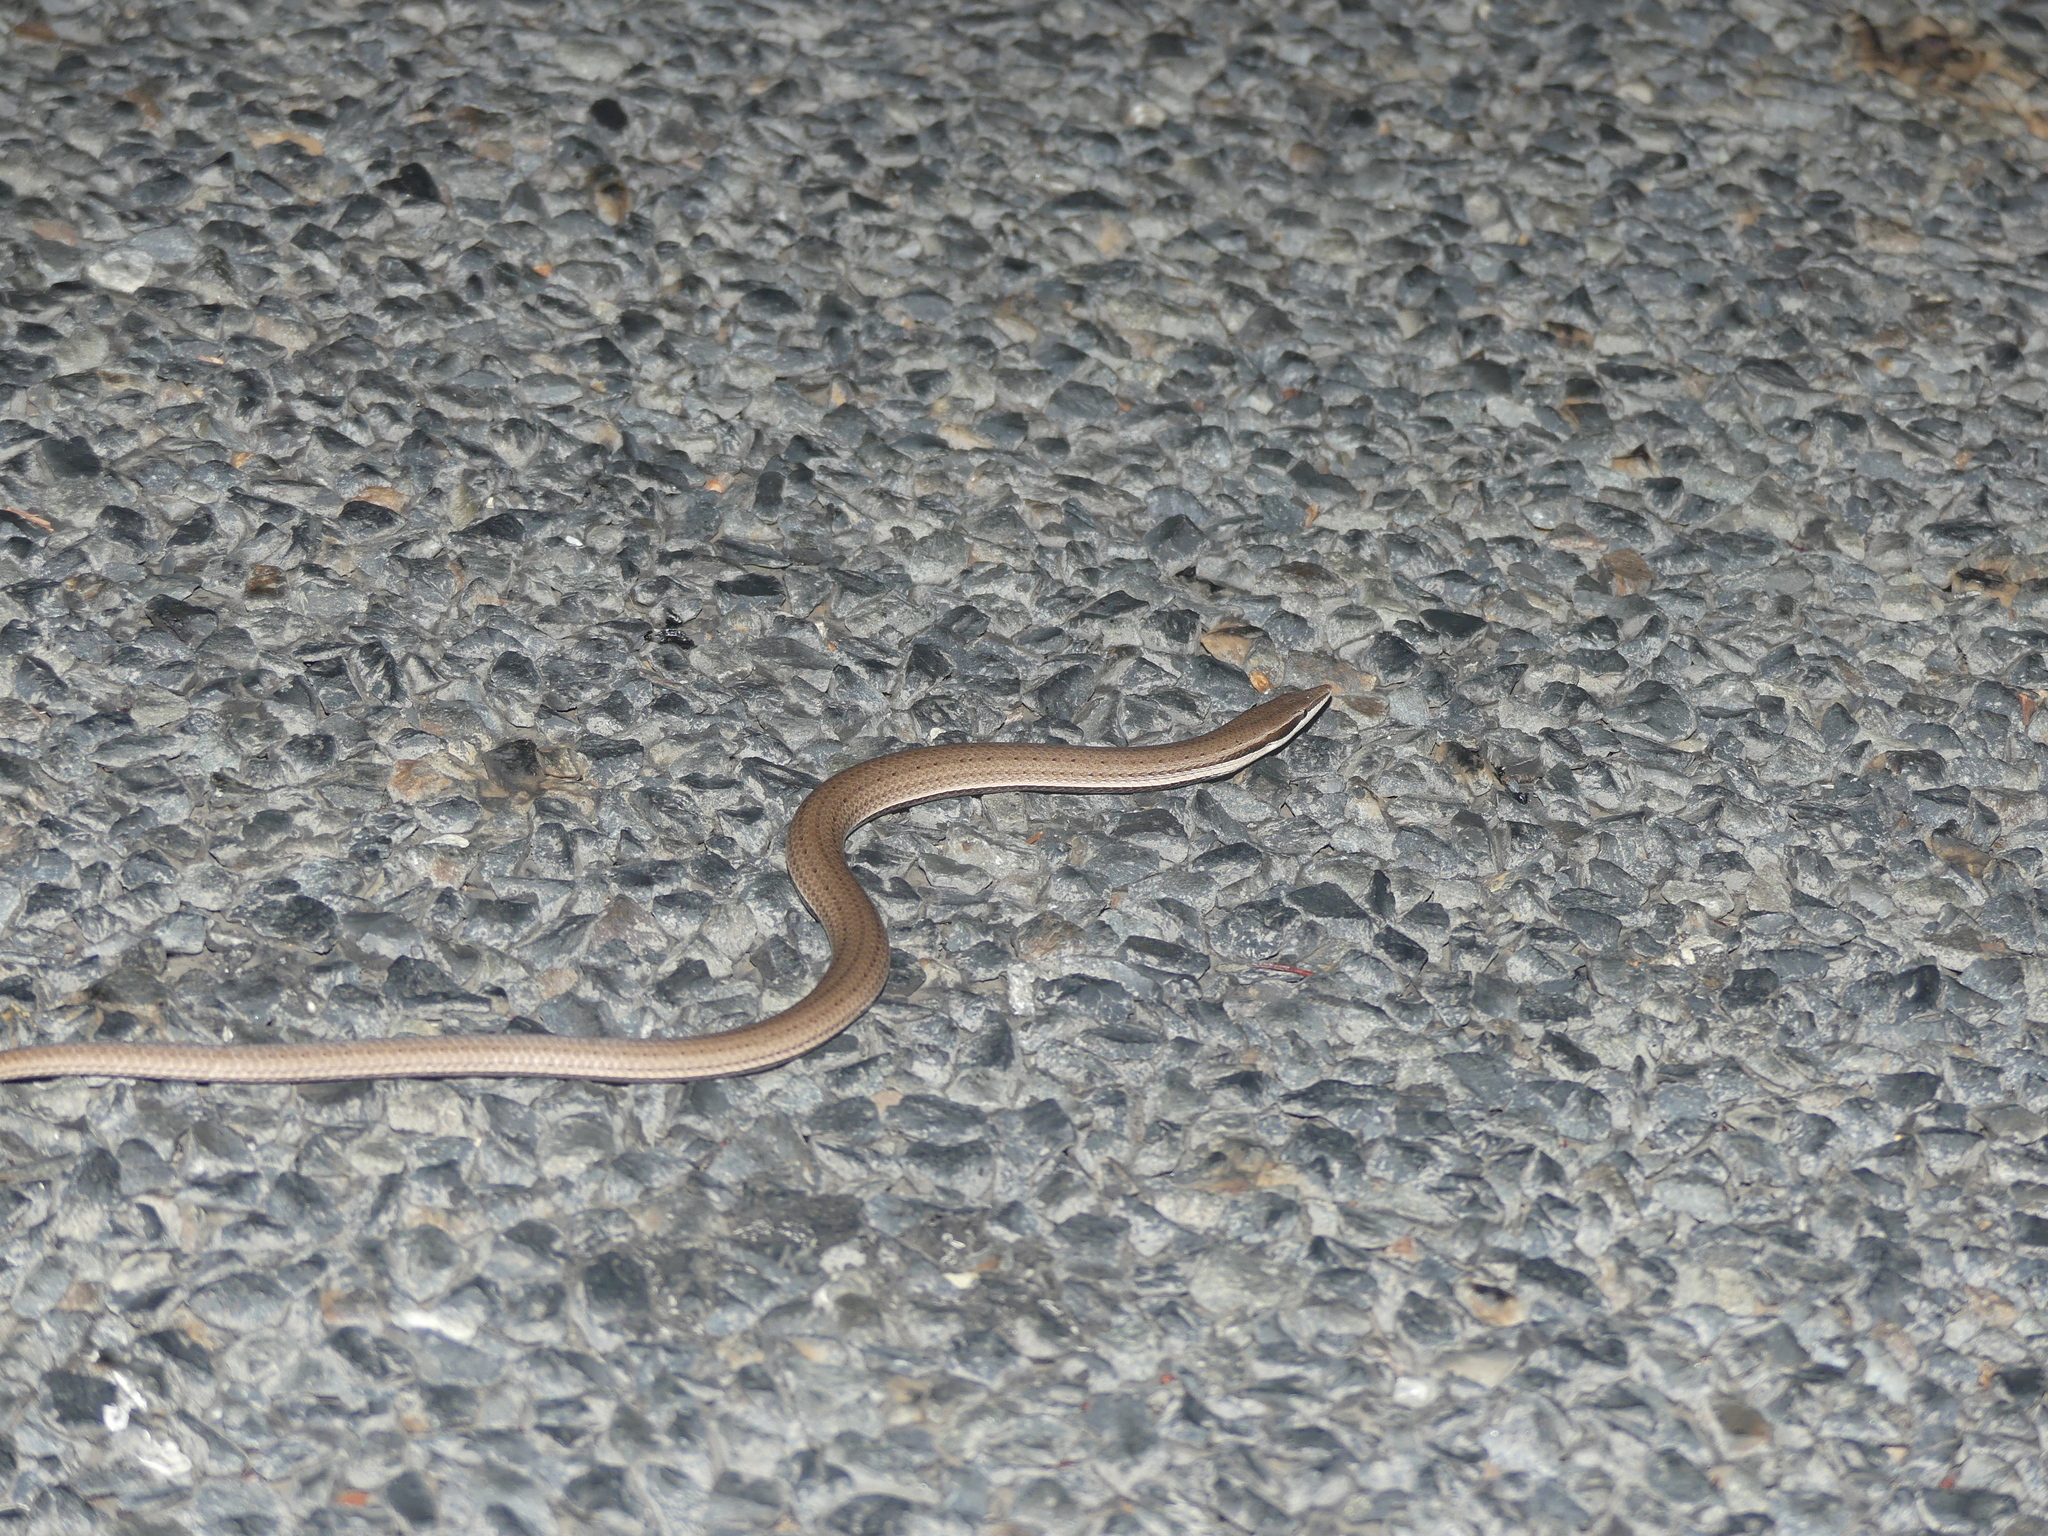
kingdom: Animalia
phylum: Chordata
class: Squamata
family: Pygopodidae
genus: Lialis
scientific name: Lialis burtonis
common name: Burton's legless lizard
